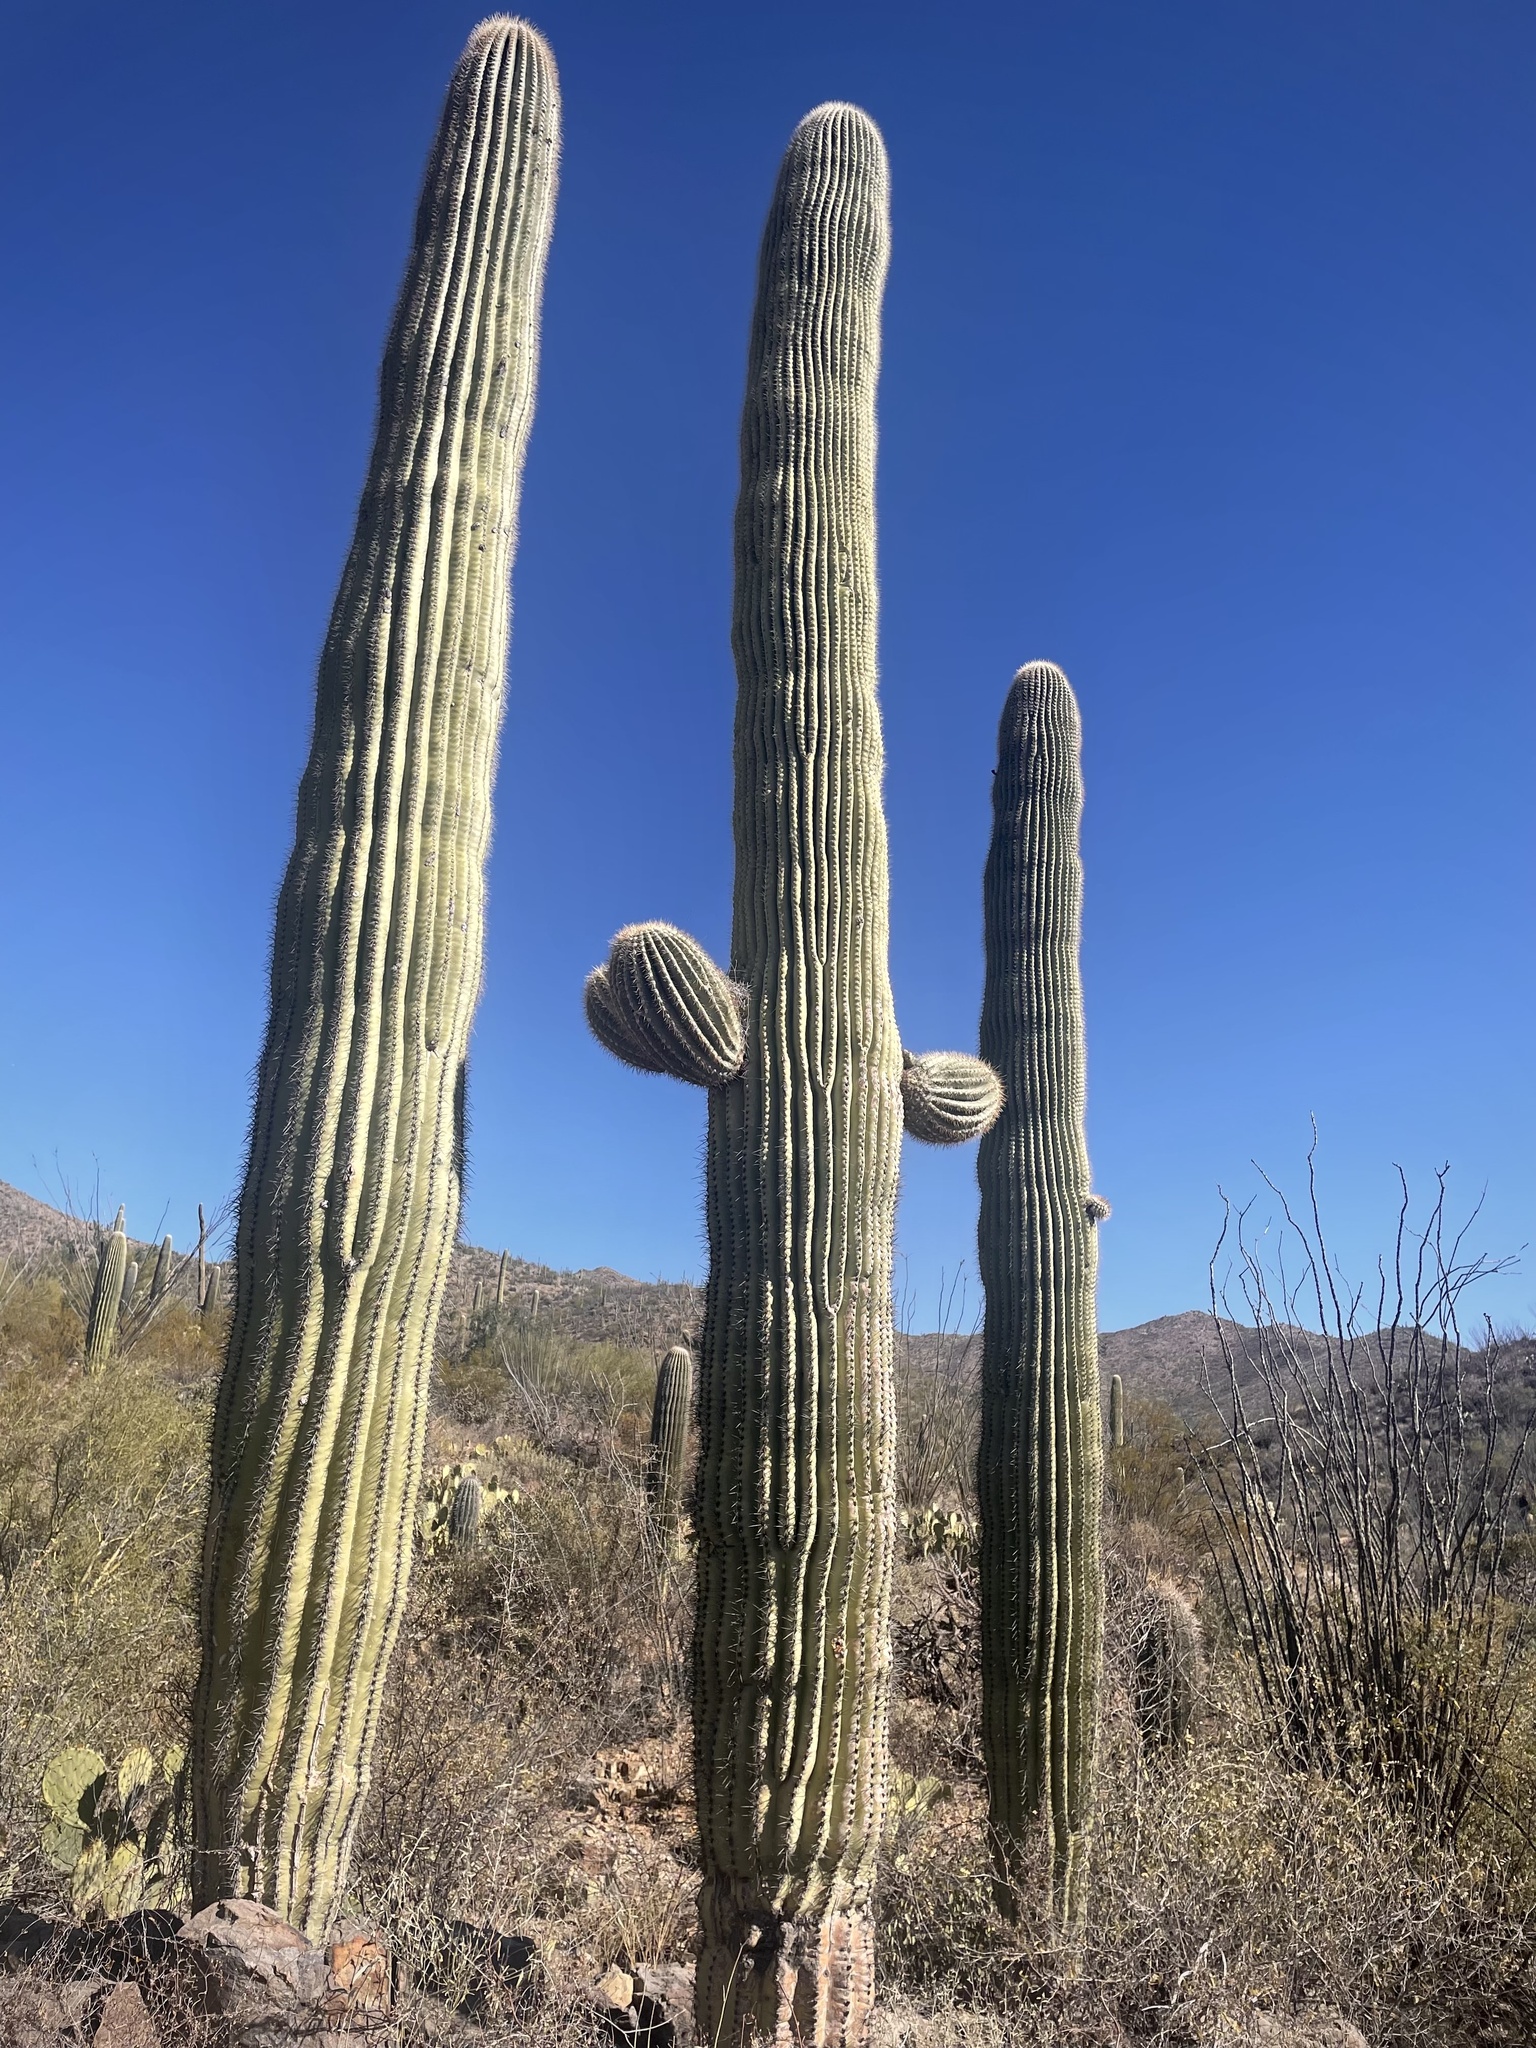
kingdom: Plantae
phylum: Tracheophyta
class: Magnoliopsida
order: Caryophyllales
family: Cactaceae
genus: Carnegiea
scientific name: Carnegiea gigantea
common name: Saguaro
